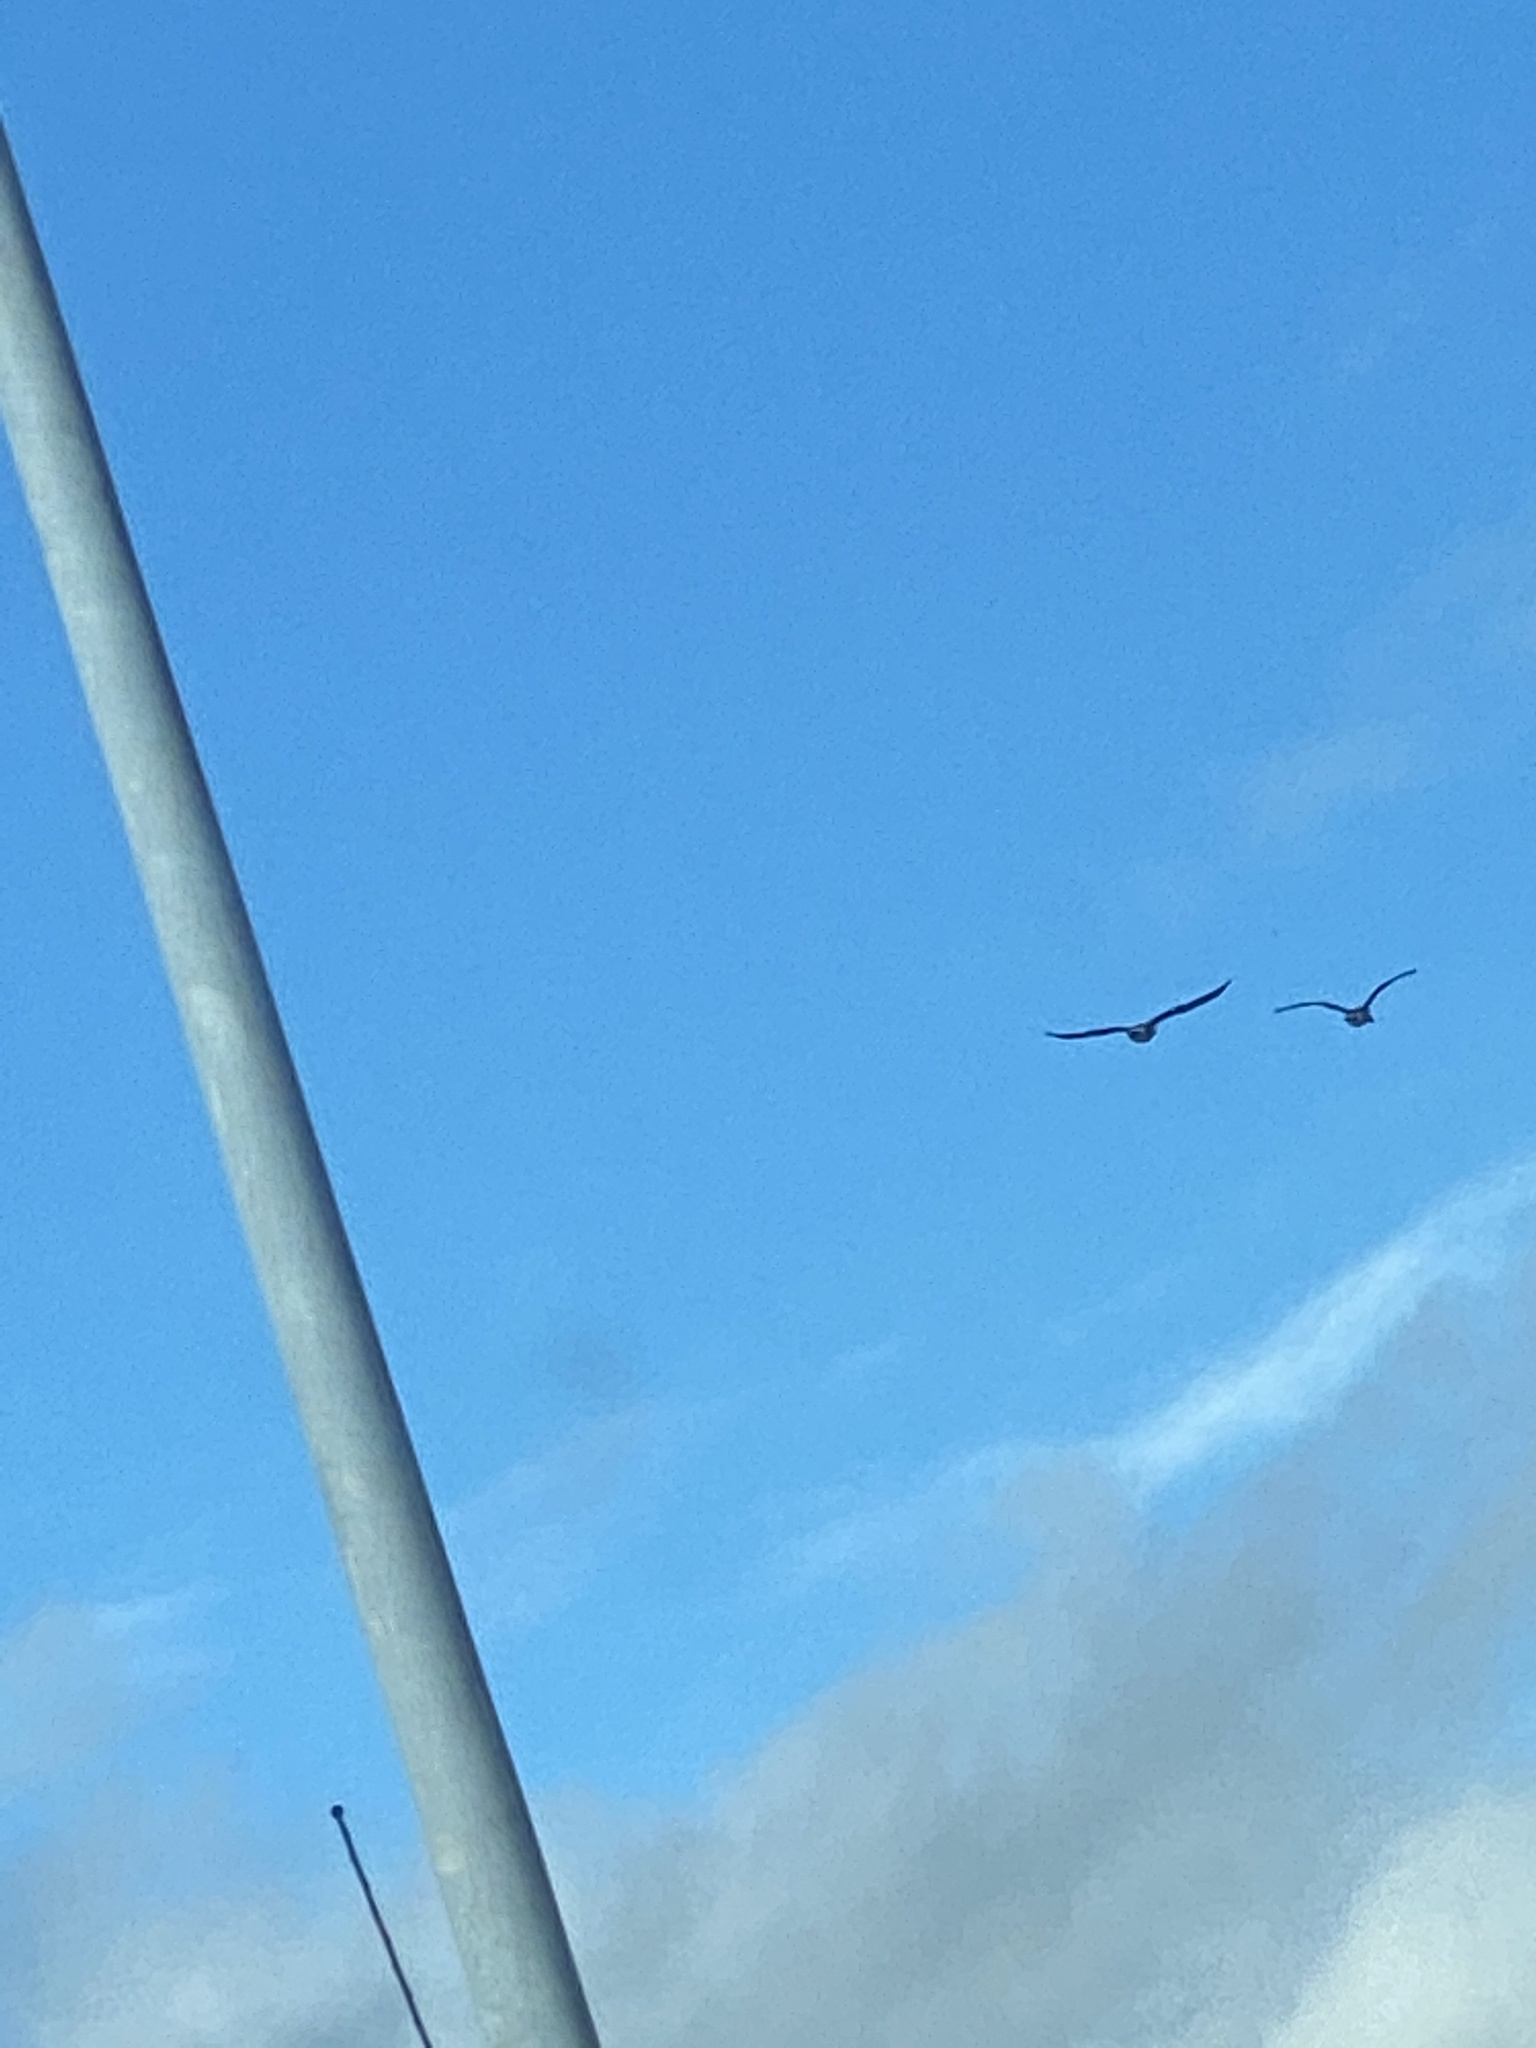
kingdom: Animalia
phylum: Chordata
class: Aves
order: Anseriformes
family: Anatidae
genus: Branta
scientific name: Branta canadensis
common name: Canada goose
